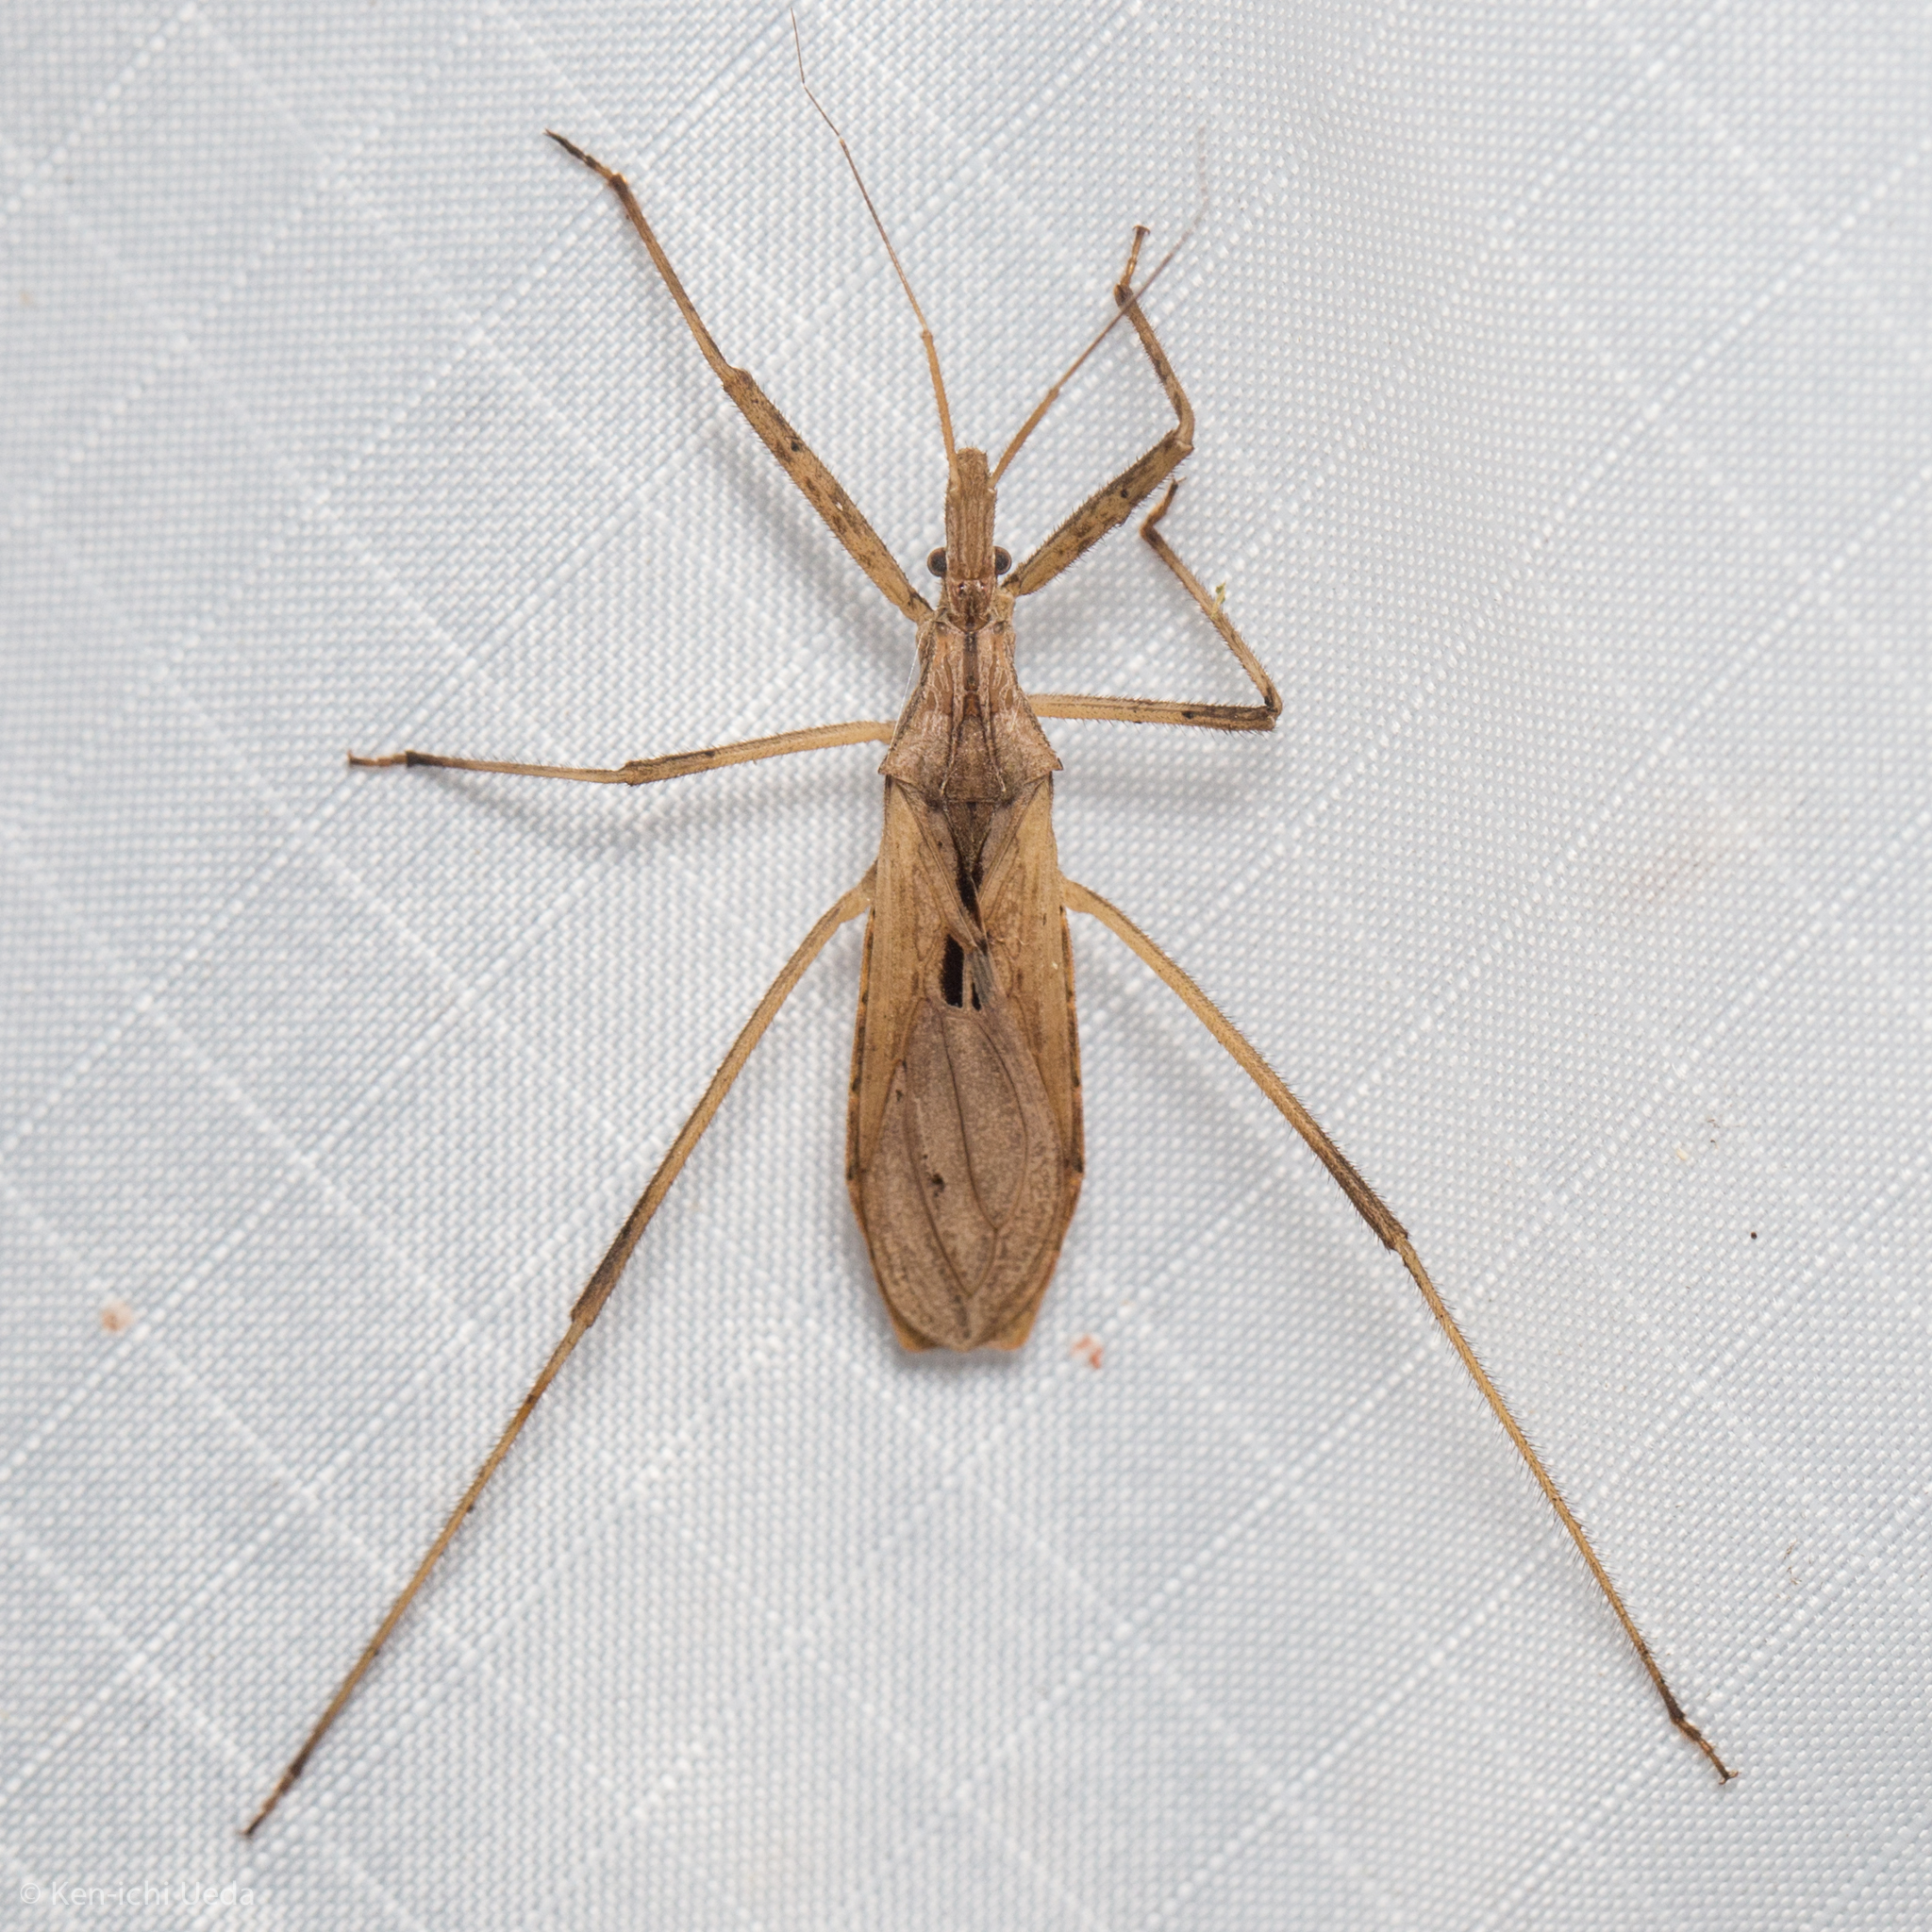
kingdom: Animalia
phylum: Arthropoda
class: Insecta
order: Hemiptera
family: Reduviidae
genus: Stenopoda
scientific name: Stenopoda spinulosa
